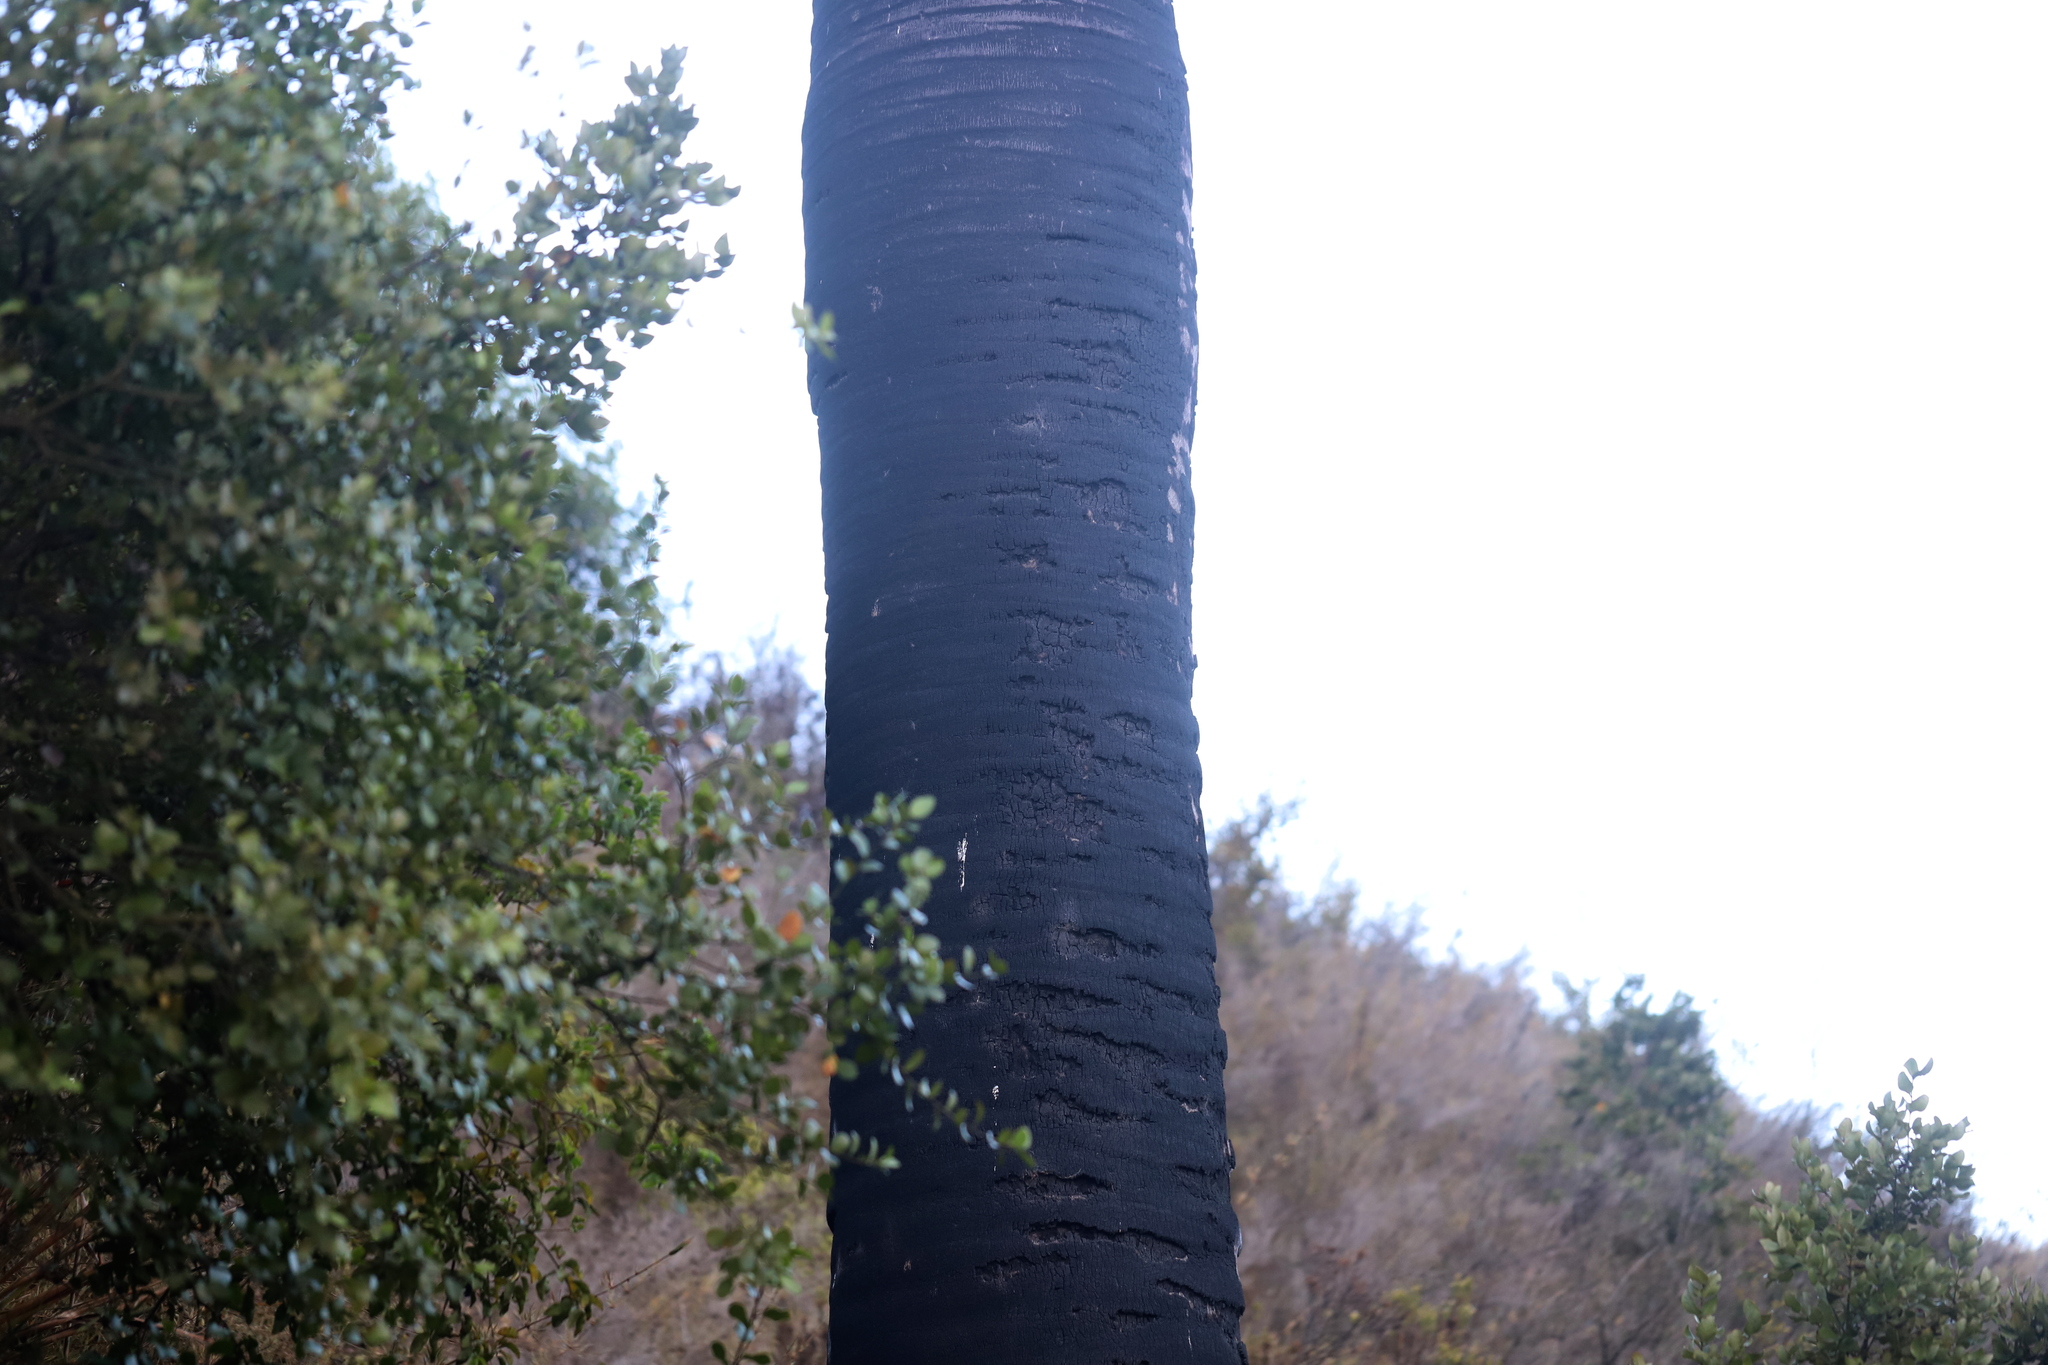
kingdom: Plantae
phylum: Tracheophyta
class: Liliopsida
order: Arecales
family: Arecaceae
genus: Jubaea
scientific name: Jubaea chilensis
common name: Coquito palm
